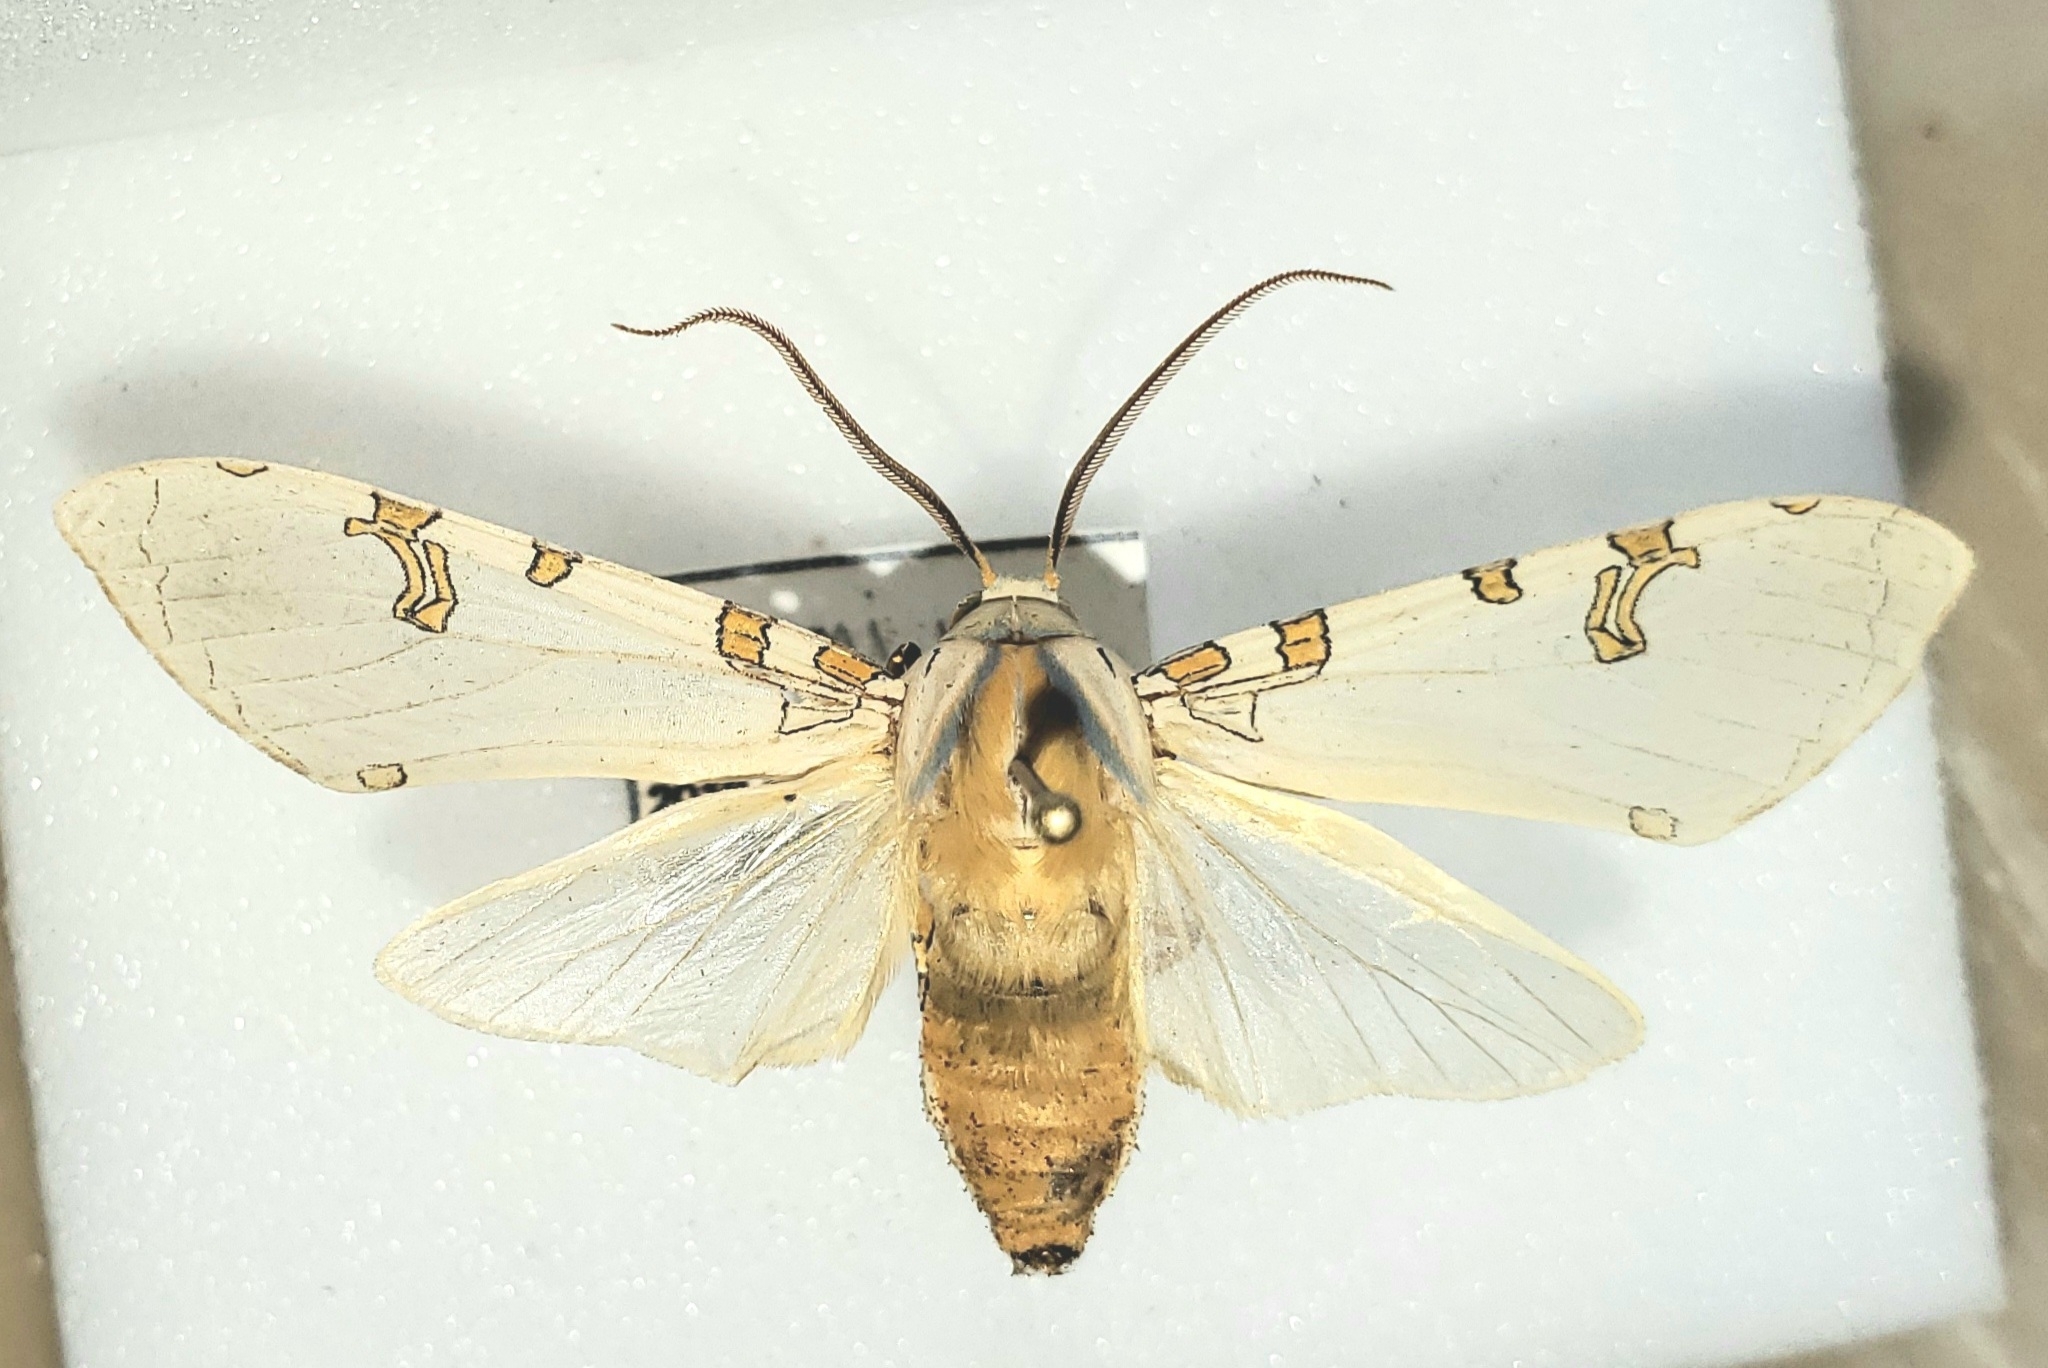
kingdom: Animalia
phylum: Arthropoda
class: Insecta
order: Lepidoptera
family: Erebidae
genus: Halysidota
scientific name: Halysidota davisii
